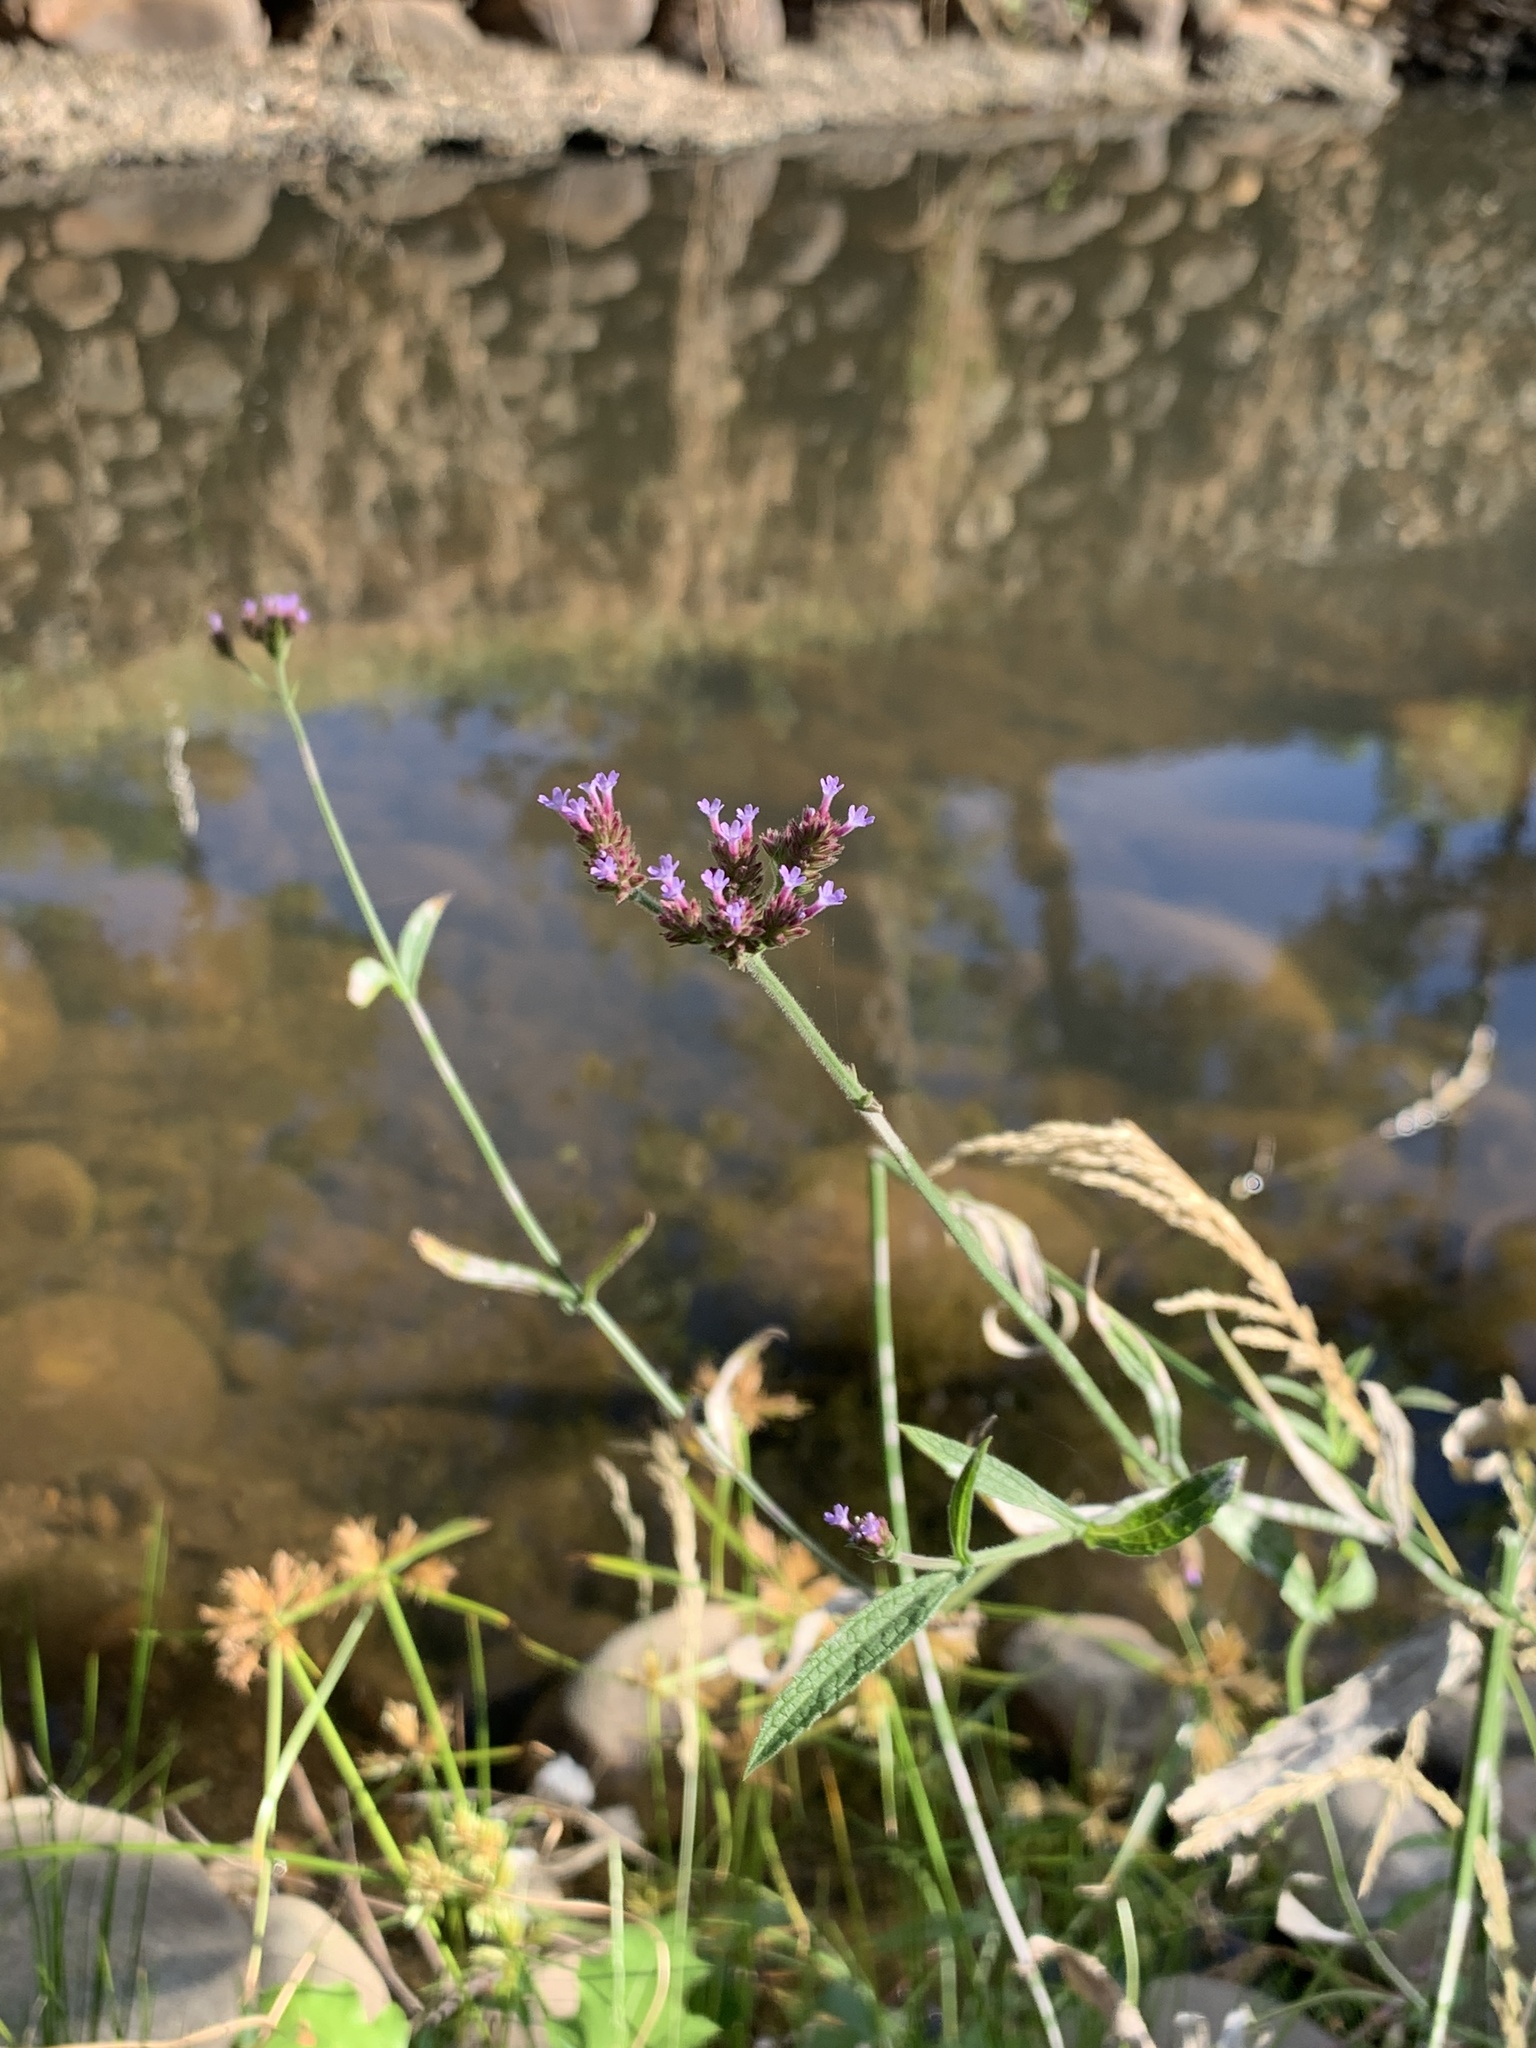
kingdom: Plantae
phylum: Tracheophyta
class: Magnoliopsida
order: Lamiales
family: Verbenaceae
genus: Verbena
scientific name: Verbena bonariensis
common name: Purpletop vervain
